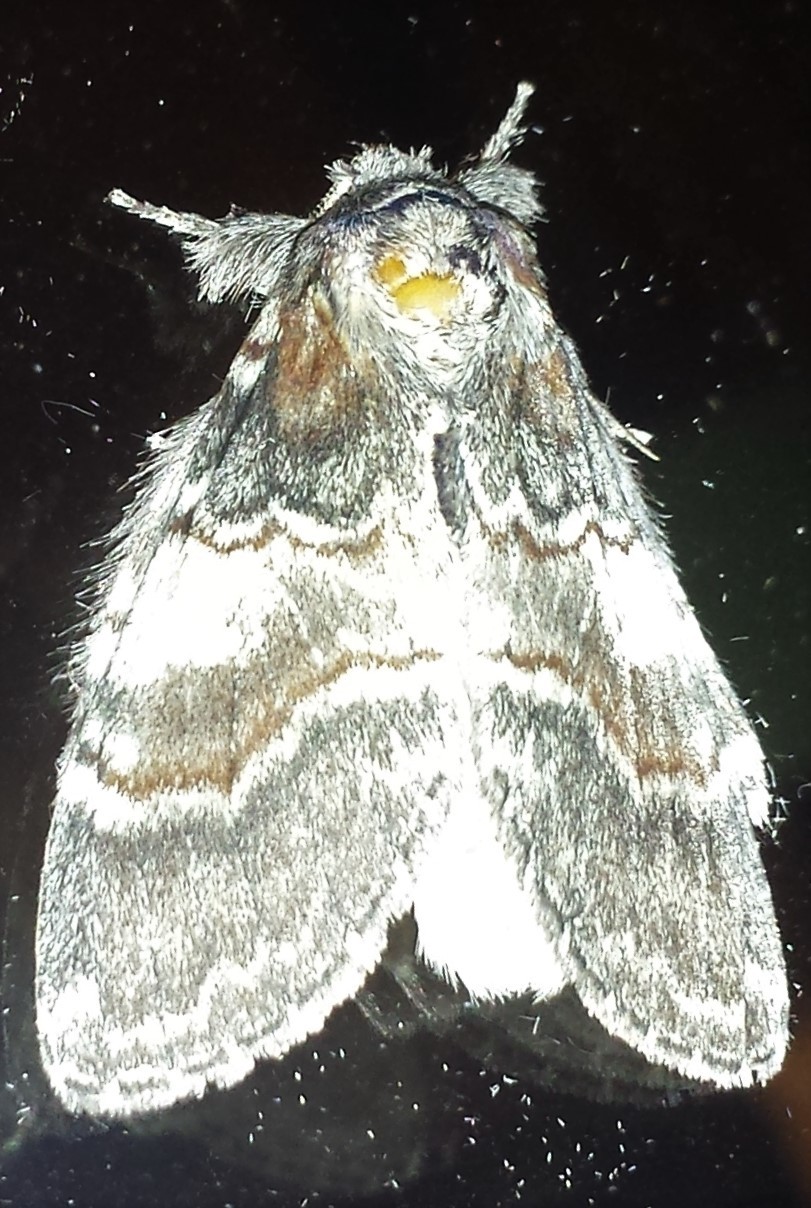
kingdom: Animalia
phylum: Arthropoda
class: Insecta
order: Lepidoptera
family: Notodontidae
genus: Peridea
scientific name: Peridea ferruginea
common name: Chocolate prominent
